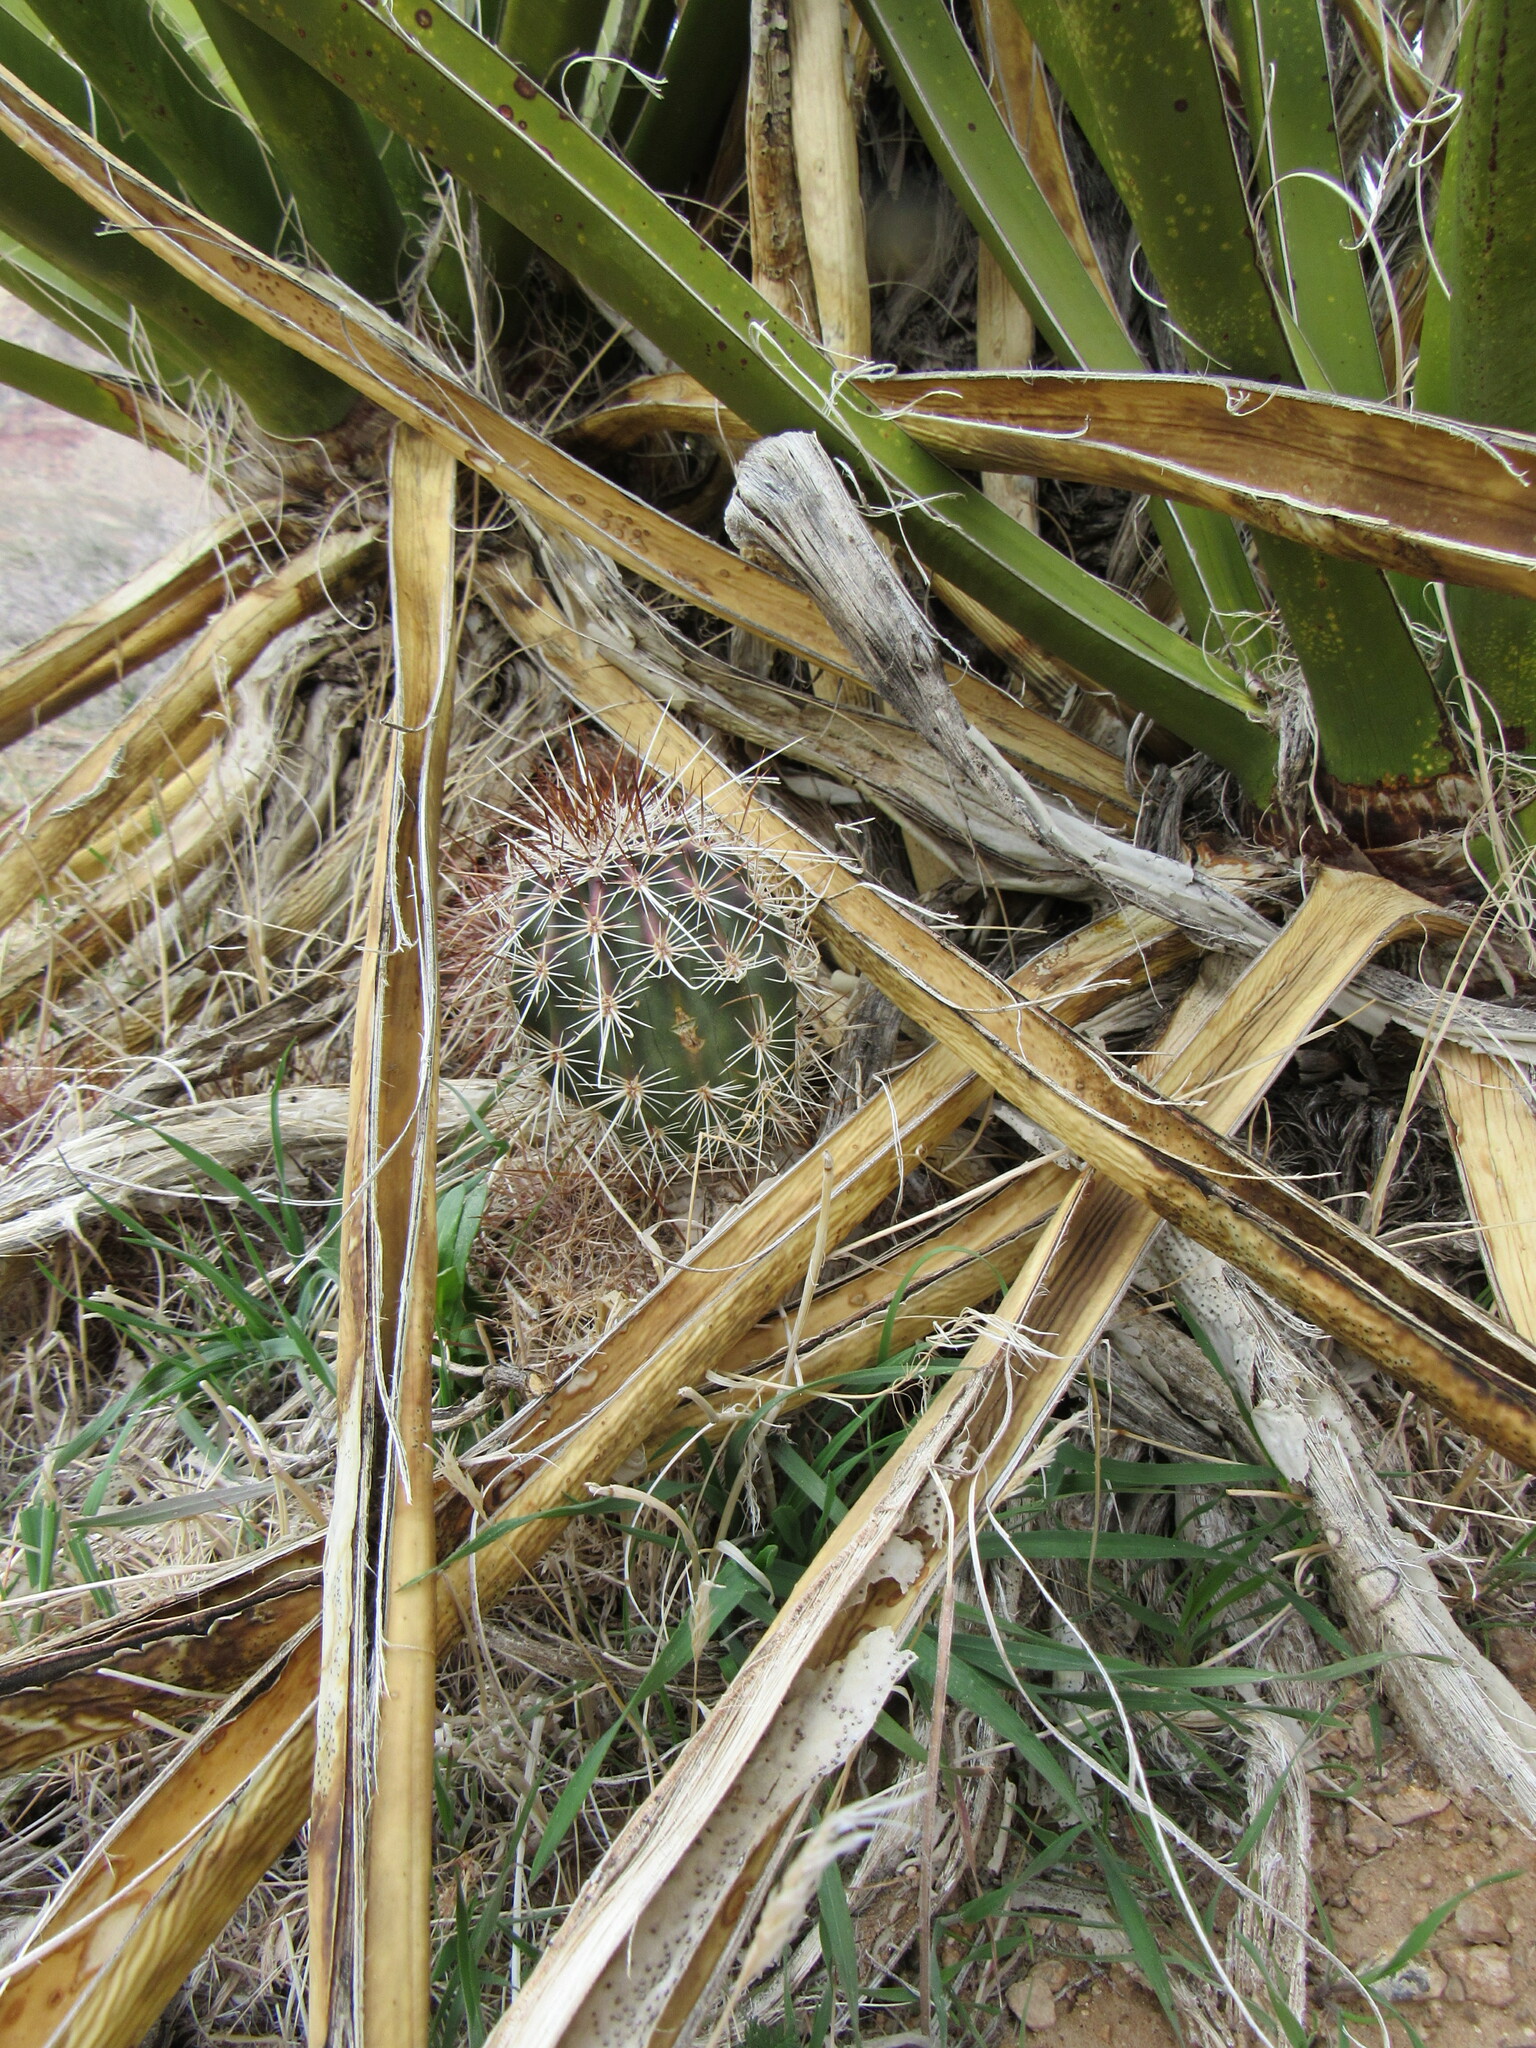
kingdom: Plantae
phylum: Tracheophyta
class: Magnoliopsida
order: Caryophyllales
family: Cactaceae
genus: Echinocereus
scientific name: Echinocereus engelmannii
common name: Engelmann's hedgehog cactus
